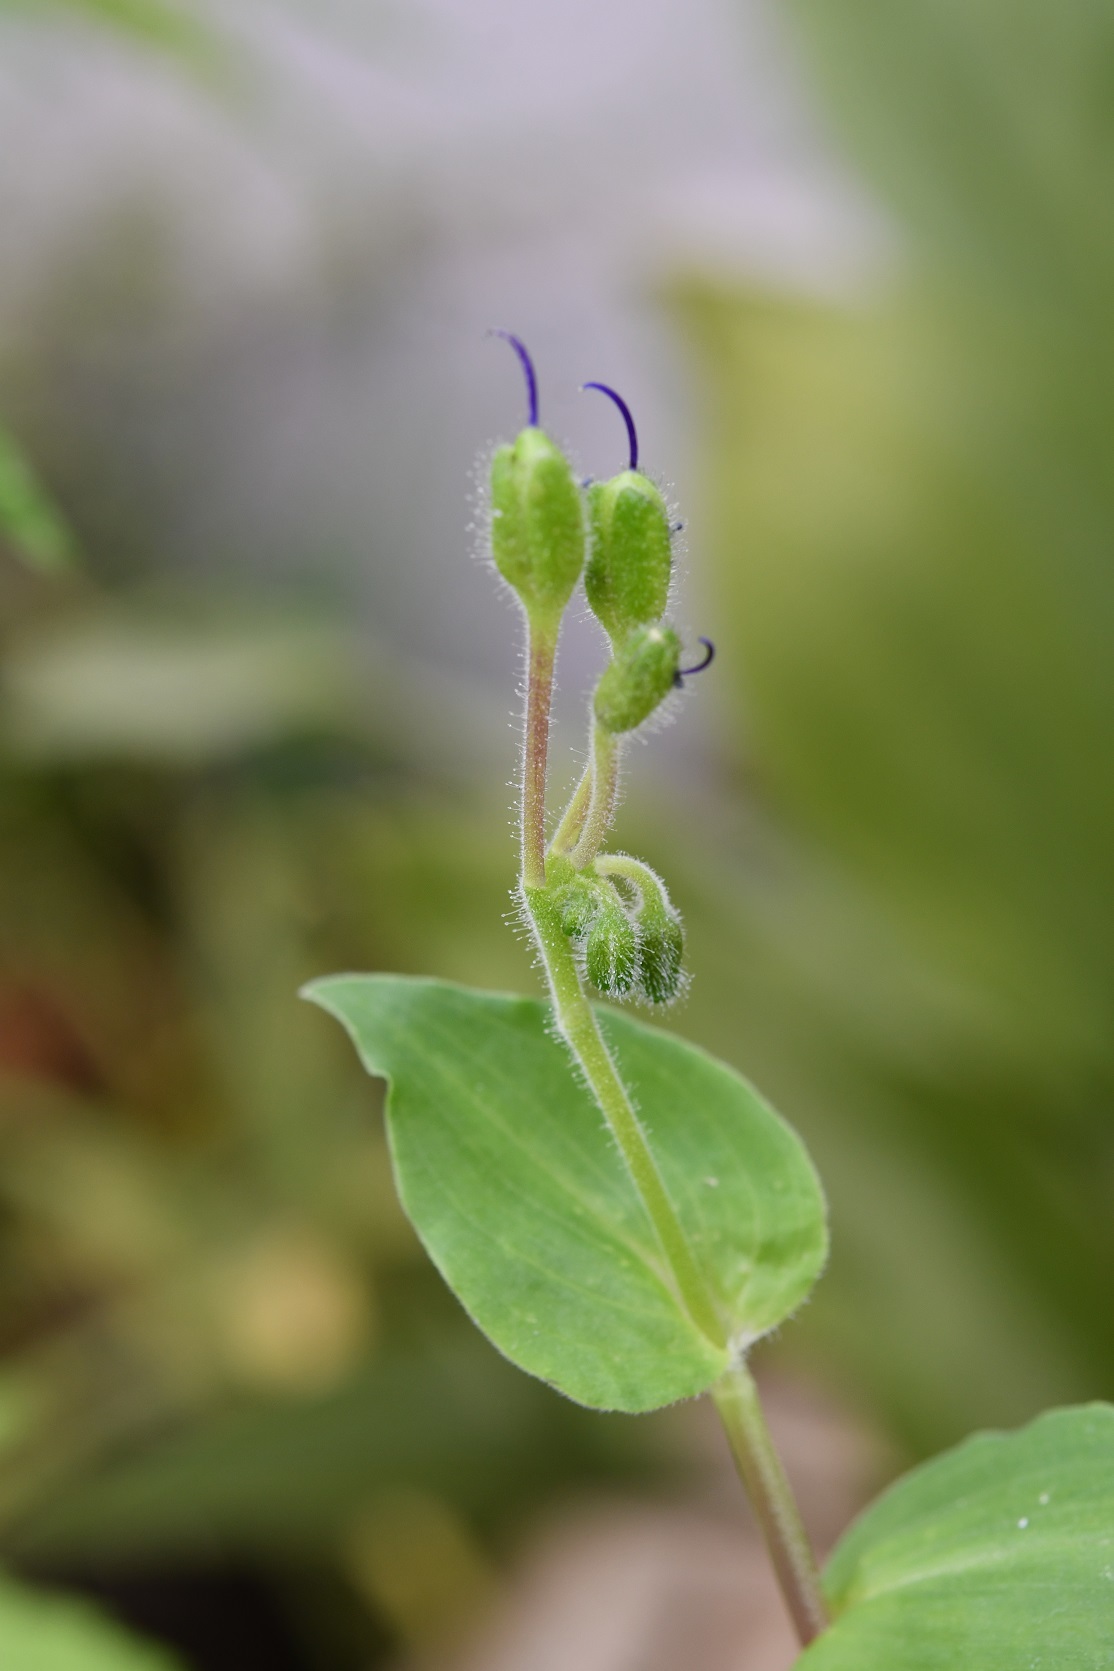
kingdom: Plantae
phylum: Tracheophyta
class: Liliopsida
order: Commelinales
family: Commelinaceae
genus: Tinantia
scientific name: Tinantia erecta
